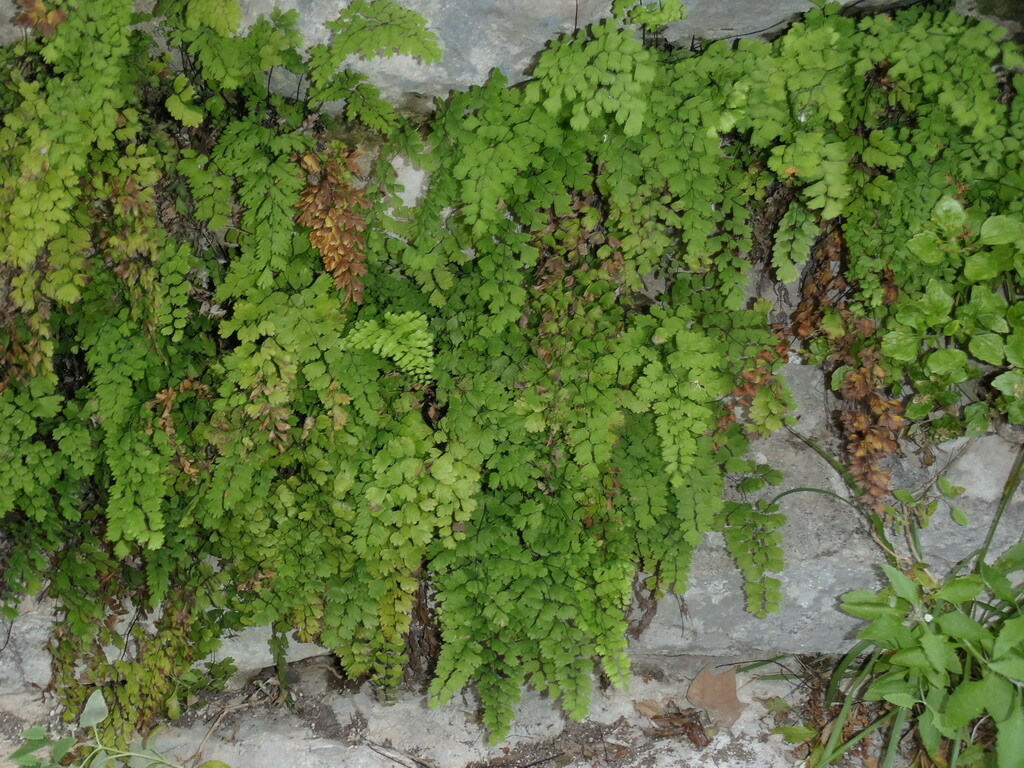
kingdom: Plantae
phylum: Tracheophyta
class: Polypodiopsida
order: Polypodiales
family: Pteridaceae
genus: Adiantum
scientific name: Adiantum capillus-veneris
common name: Maidenhair fern
